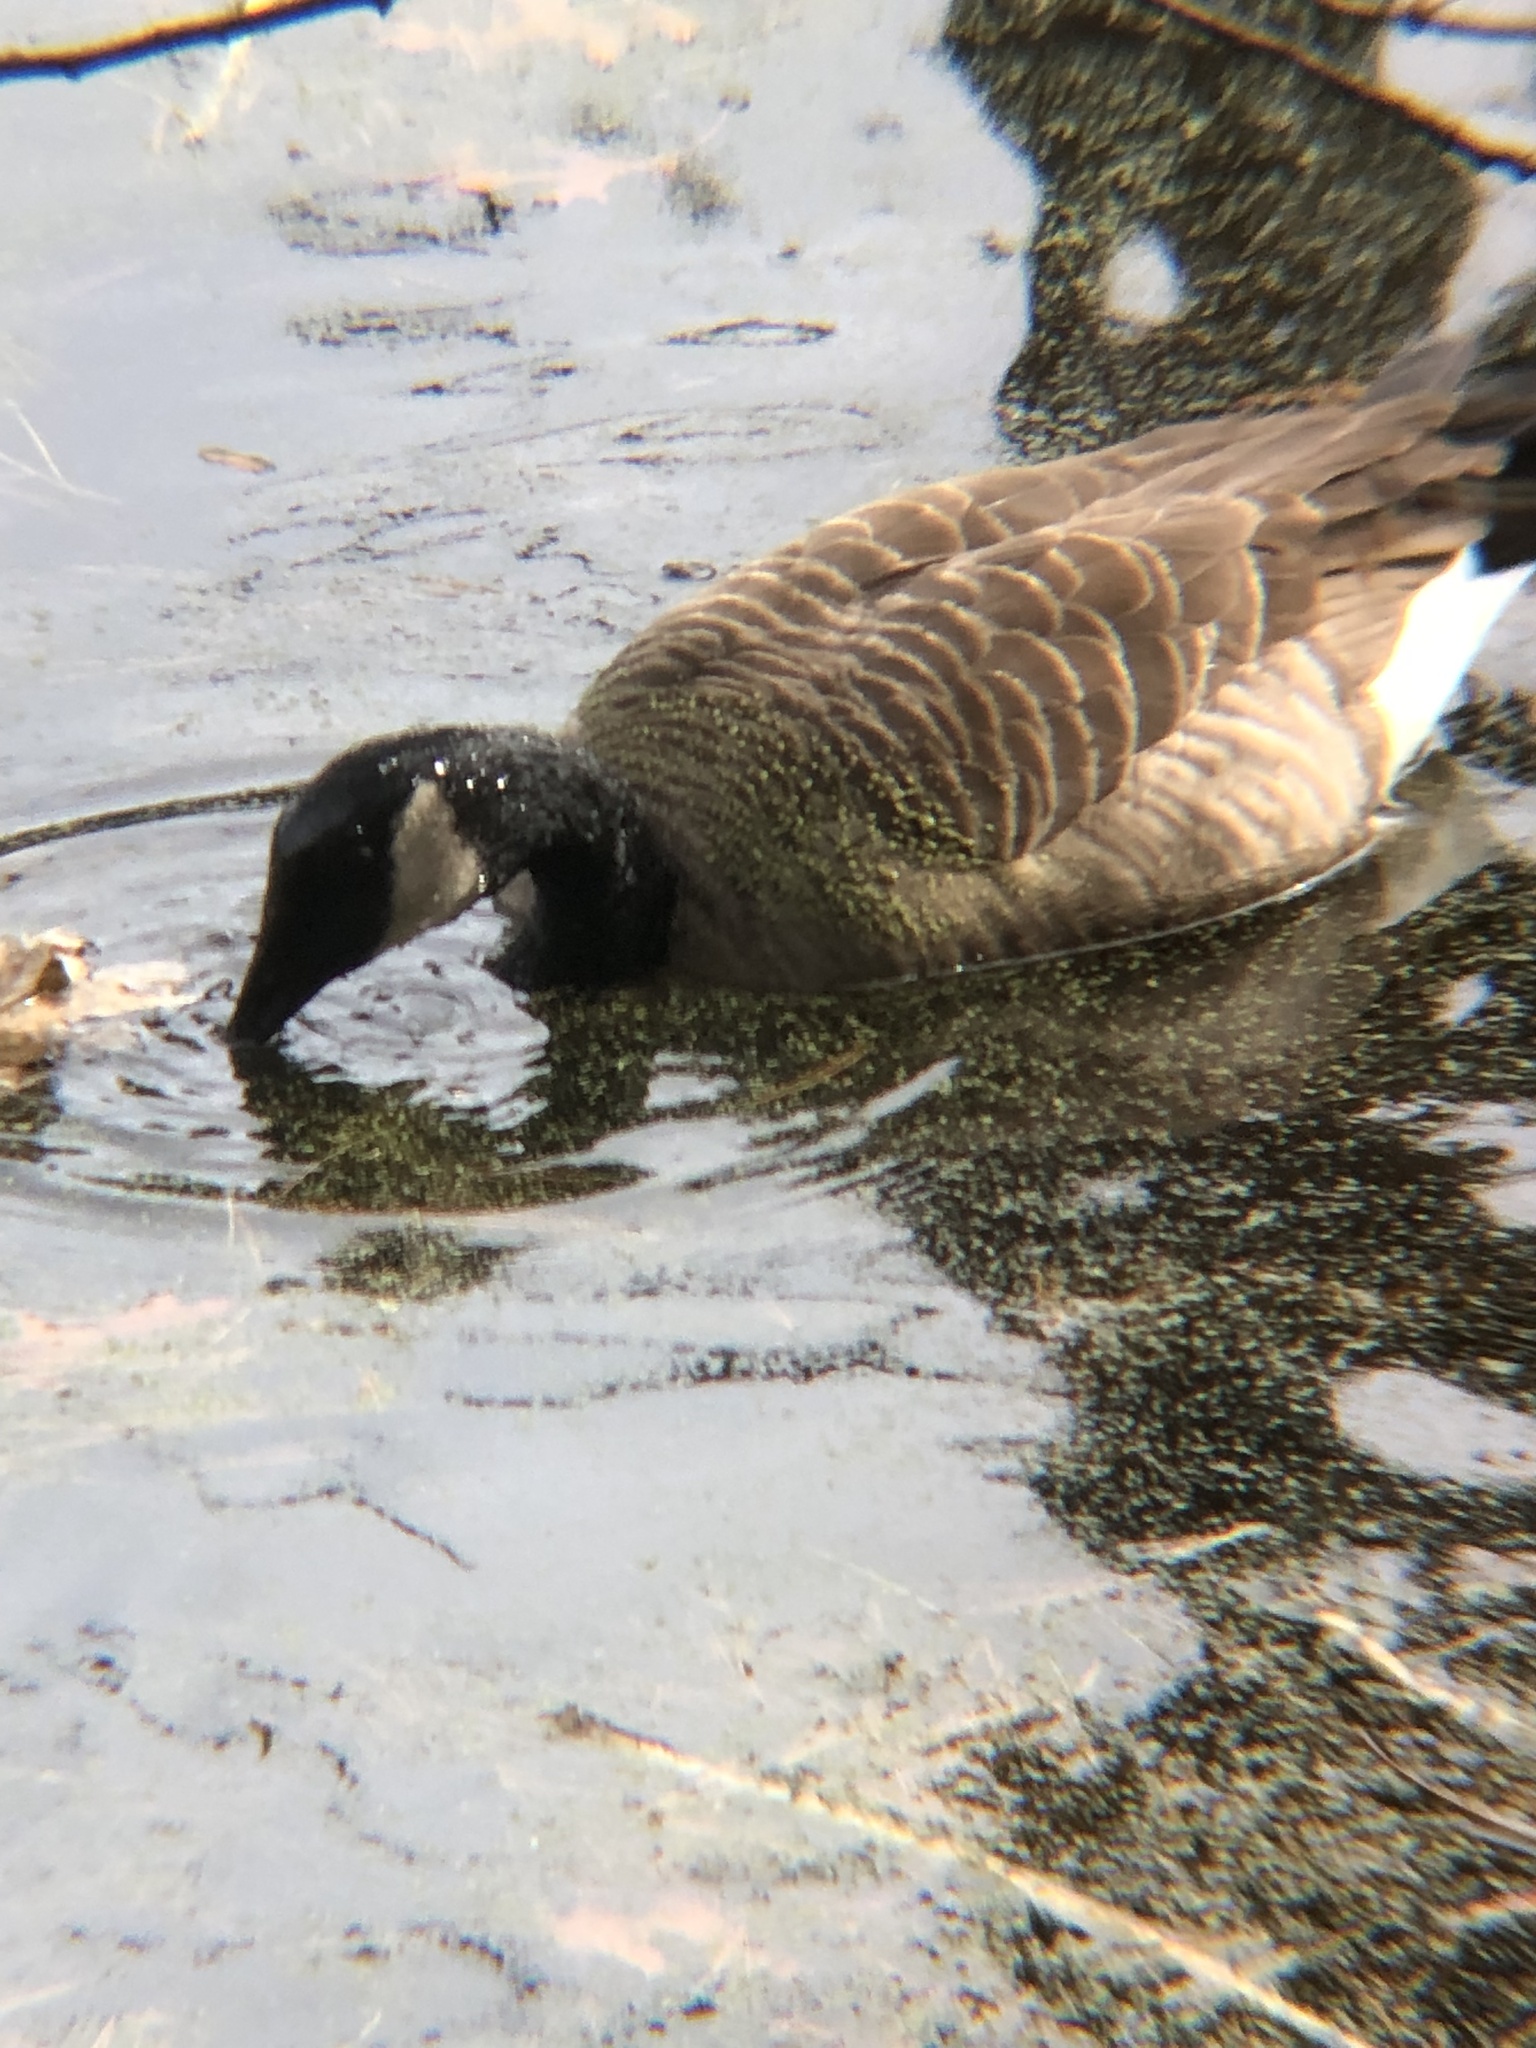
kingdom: Animalia
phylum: Chordata
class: Aves
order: Anseriformes
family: Anatidae
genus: Branta
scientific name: Branta canadensis
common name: Canada goose
